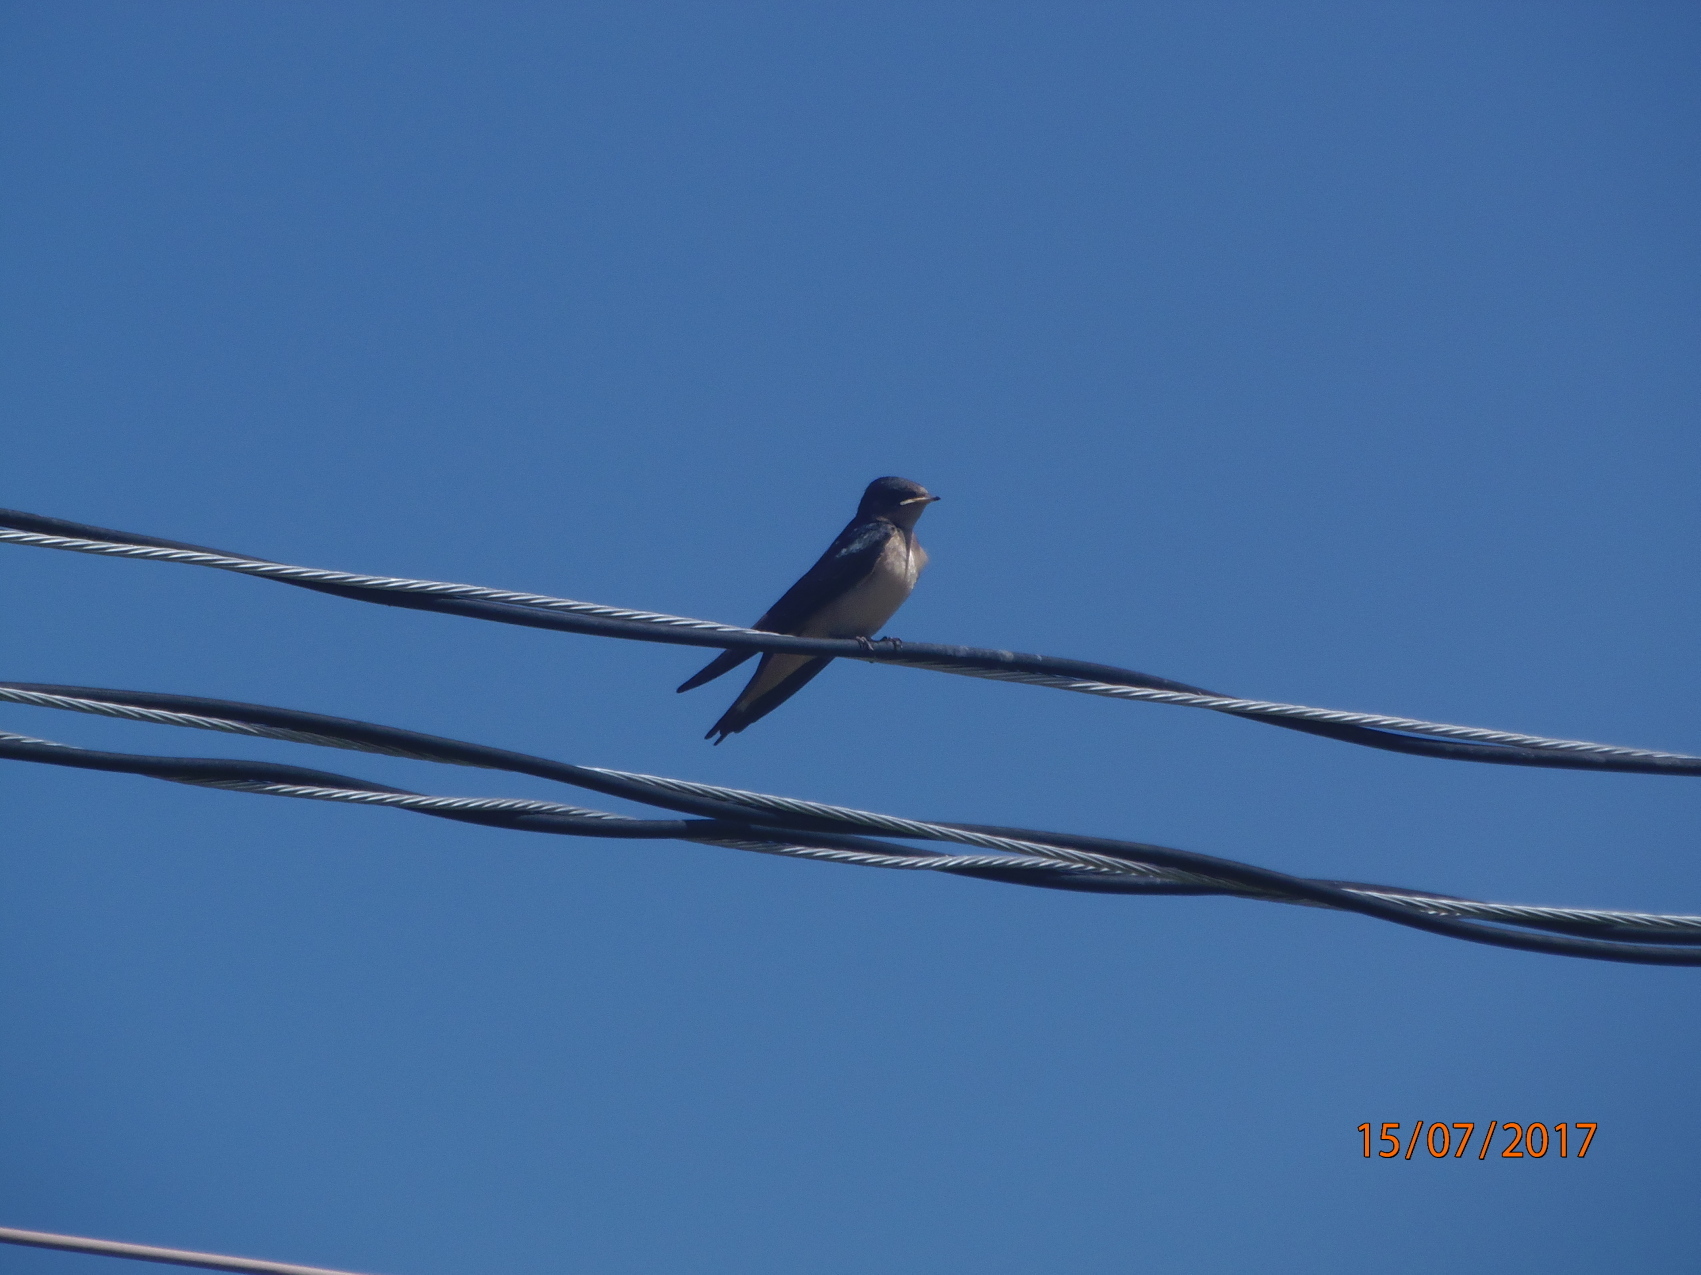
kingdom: Animalia
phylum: Chordata
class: Aves
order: Passeriformes
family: Hirundinidae
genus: Hirundo
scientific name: Hirundo rustica
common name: Barn swallow
